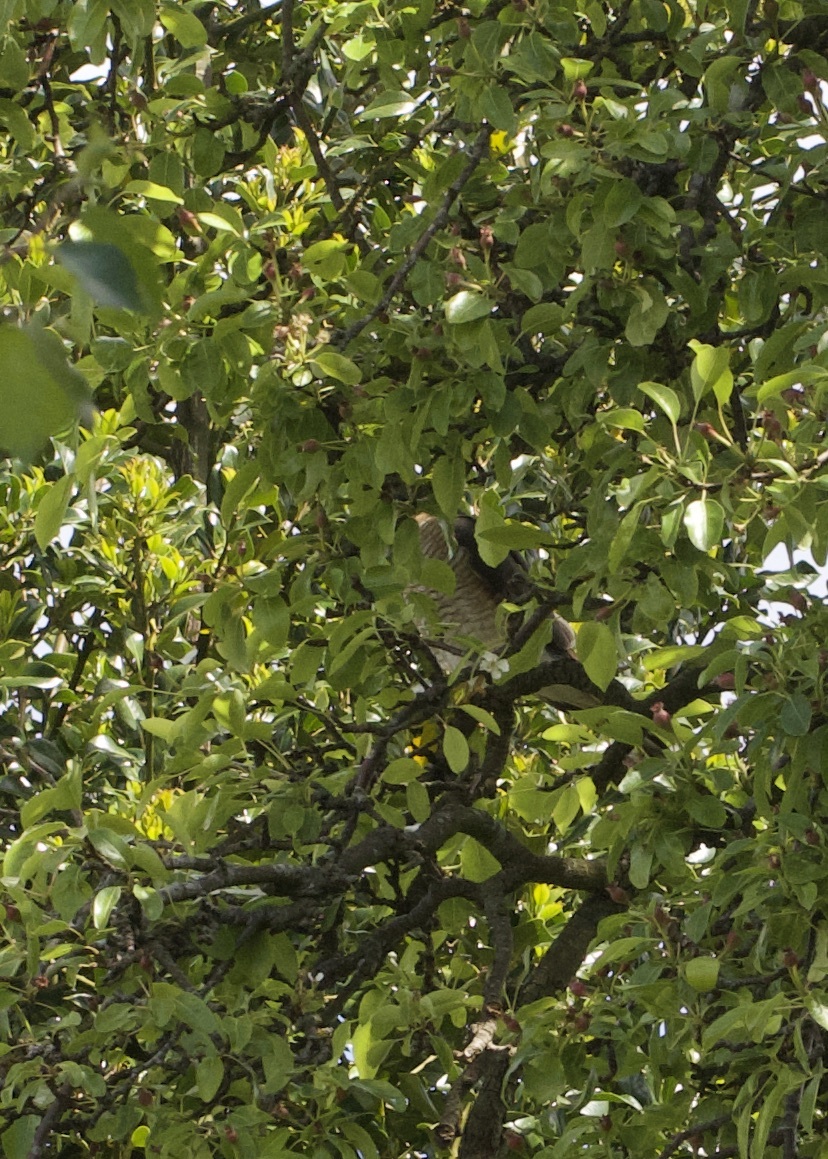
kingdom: Animalia
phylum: Chordata
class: Aves
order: Accipitriformes
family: Accipitridae
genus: Accipiter
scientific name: Accipiter nisus
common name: Eurasian sparrowhawk
